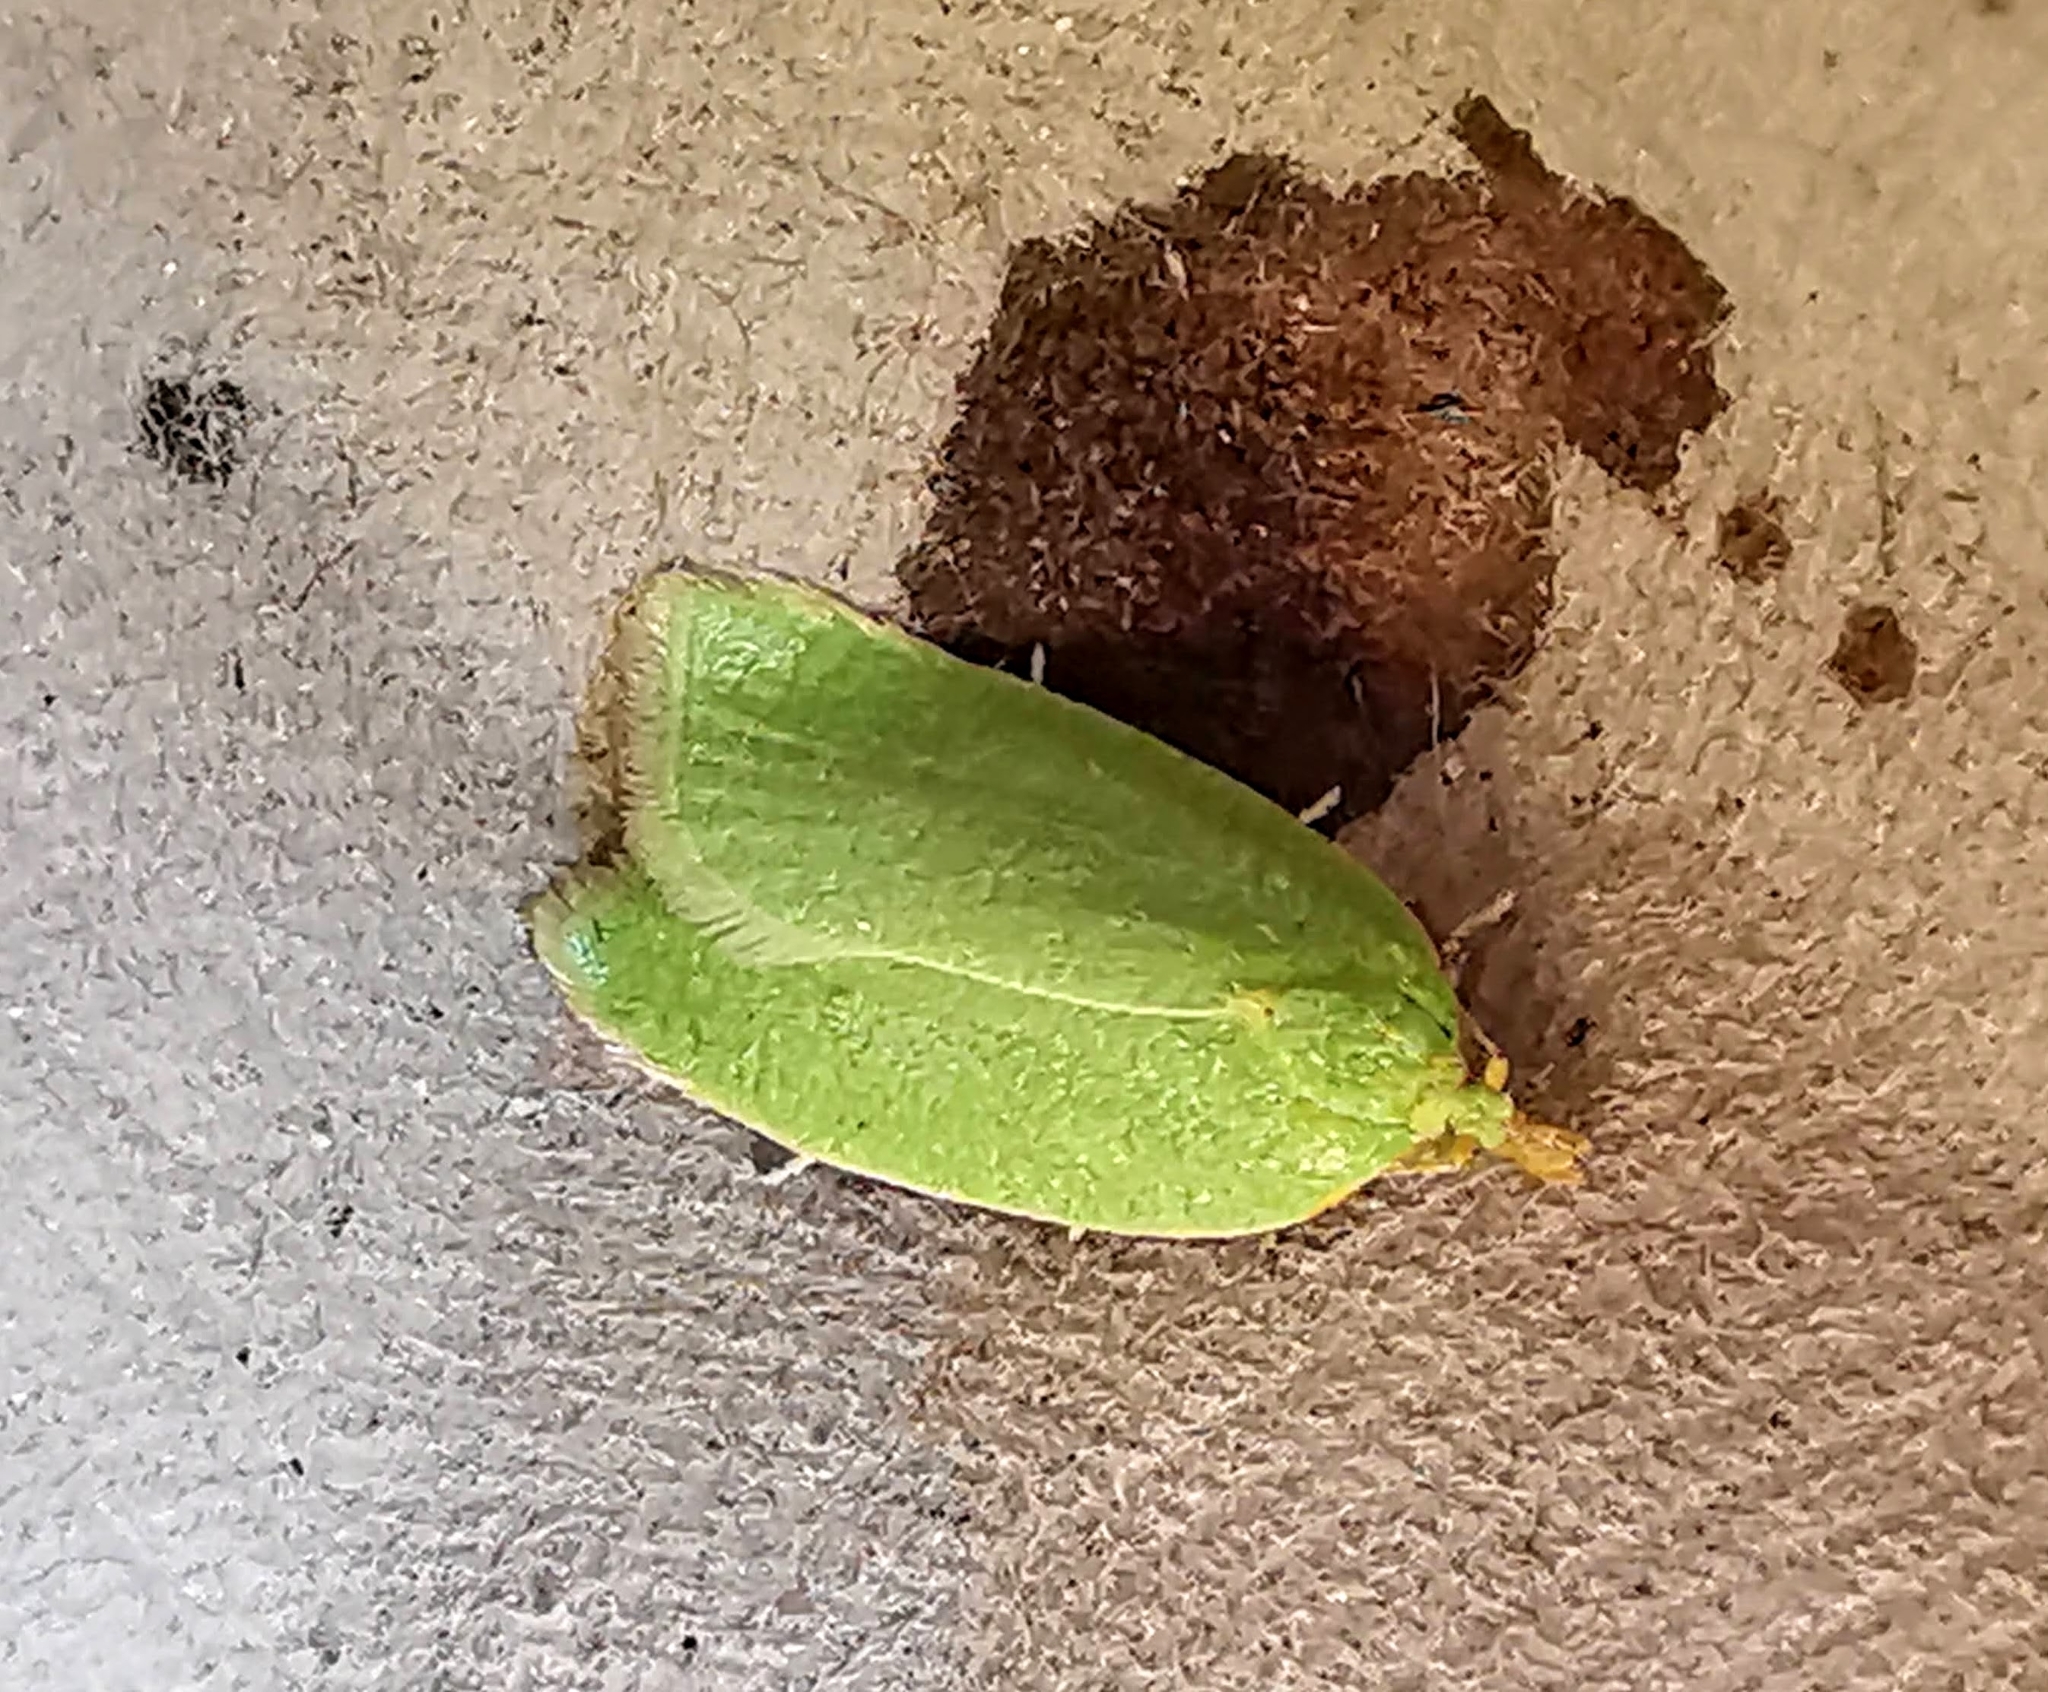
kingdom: Animalia
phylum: Arthropoda
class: Insecta
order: Lepidoptera
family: Tortricidae
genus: Tortrix
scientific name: Tortrix viridana
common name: Green oak tortrix
